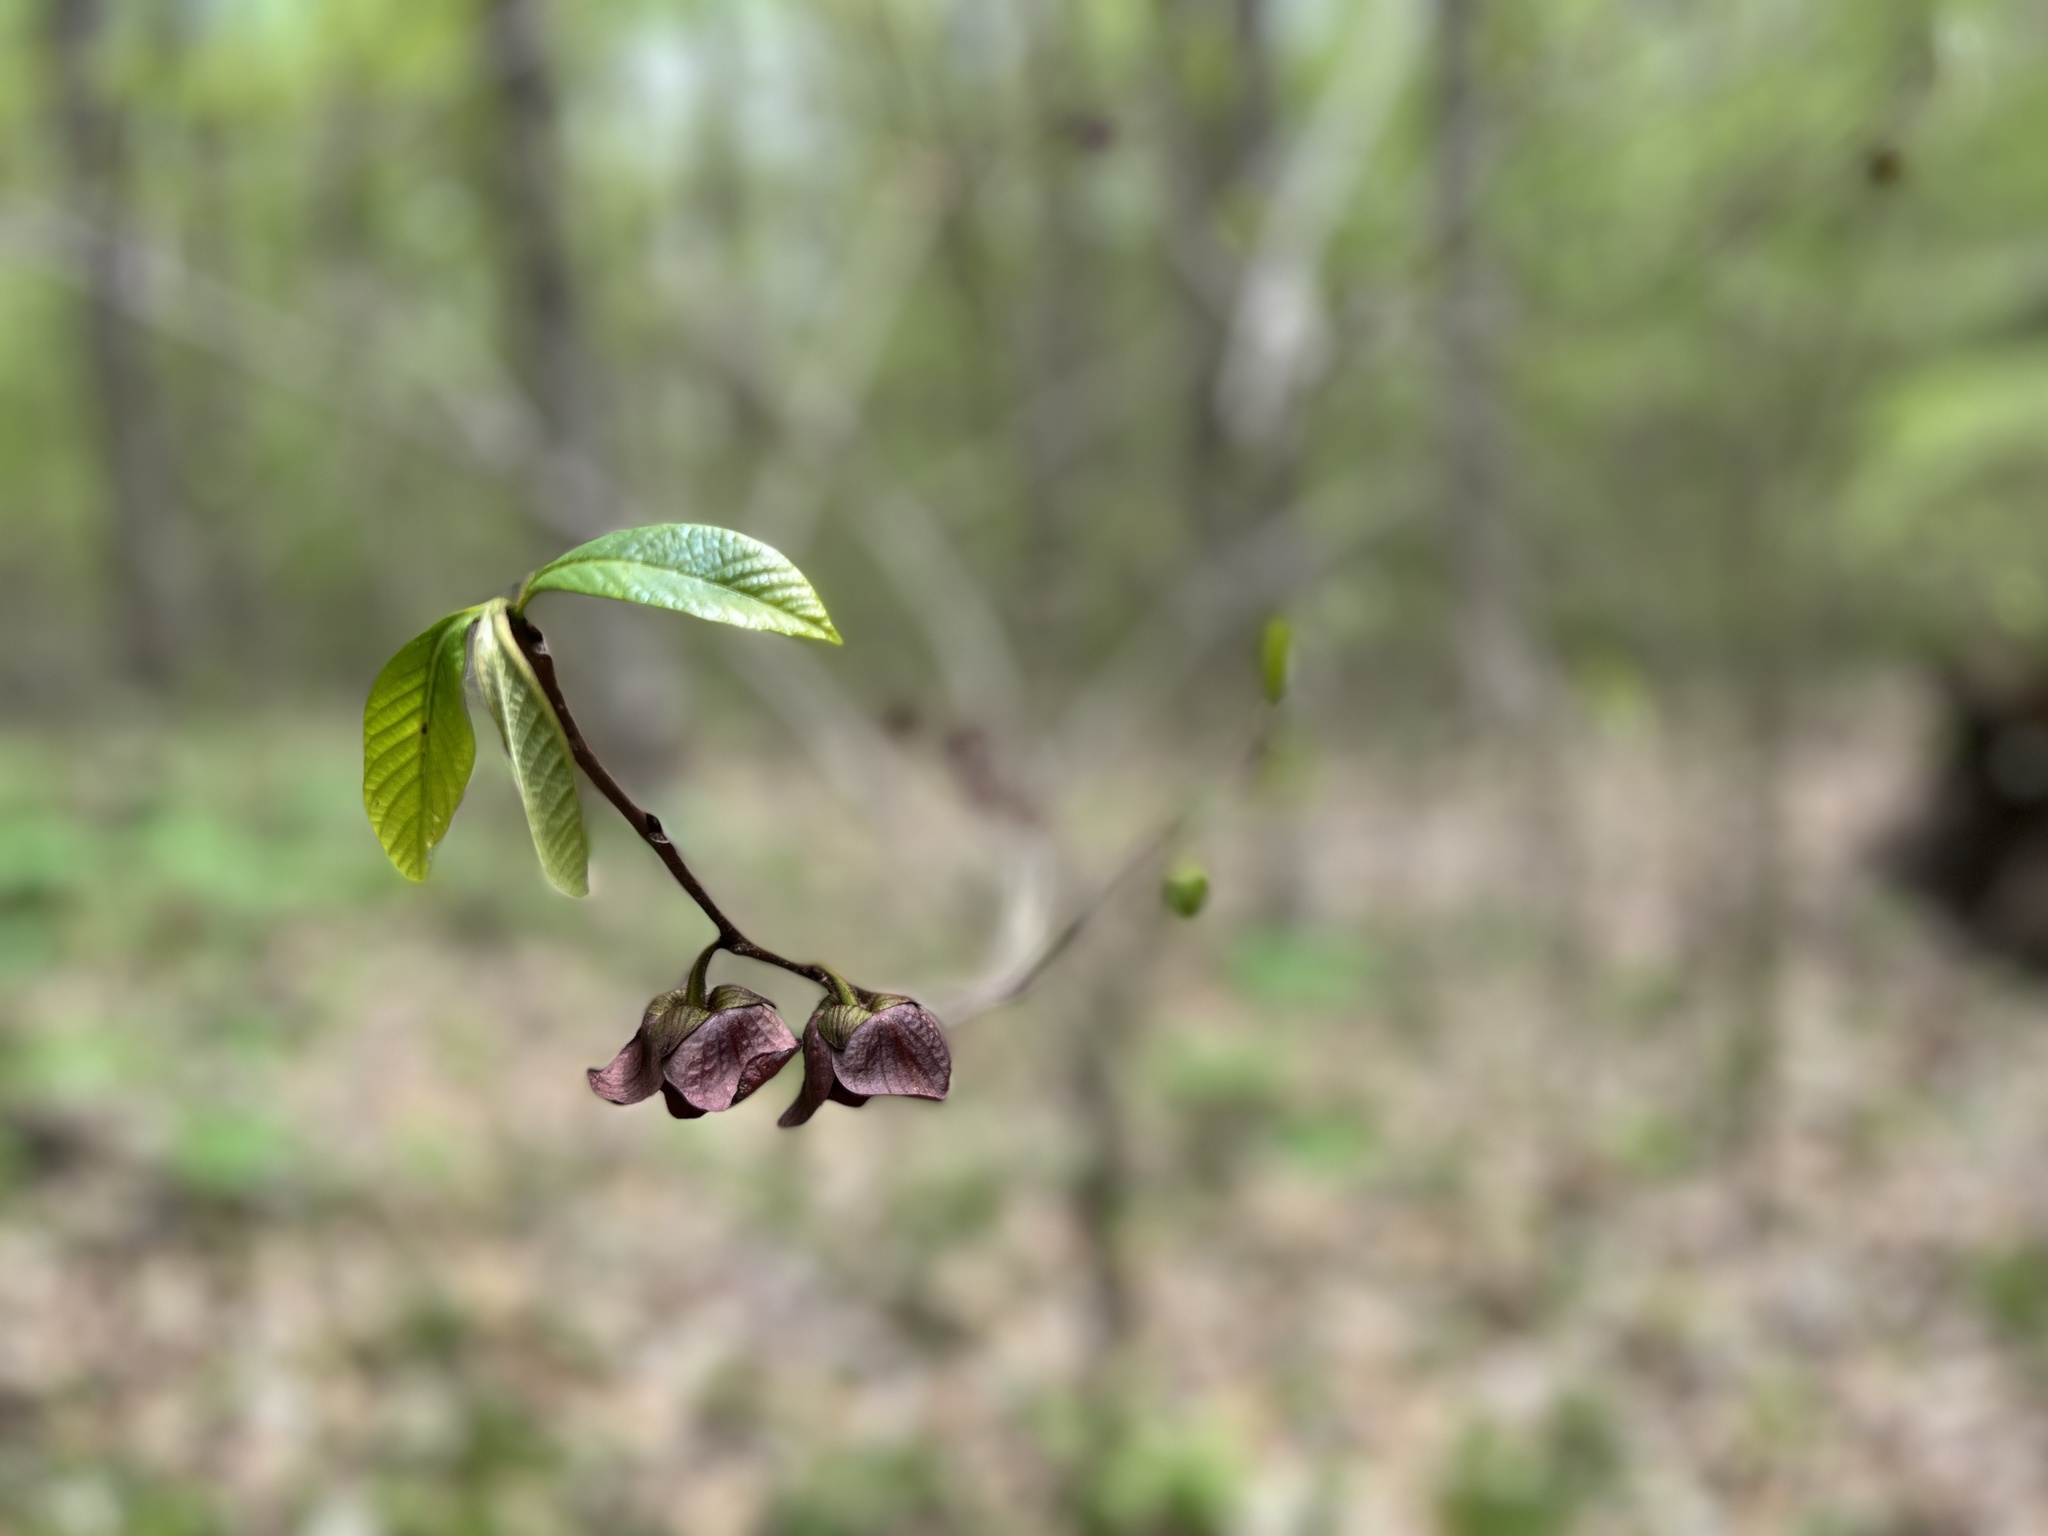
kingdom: Plantae
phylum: Tracheophyta
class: Magnoliopsida
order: Magnoliales
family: Annonaceae
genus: Asimina
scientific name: Asimina triloba
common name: Dog-banana
